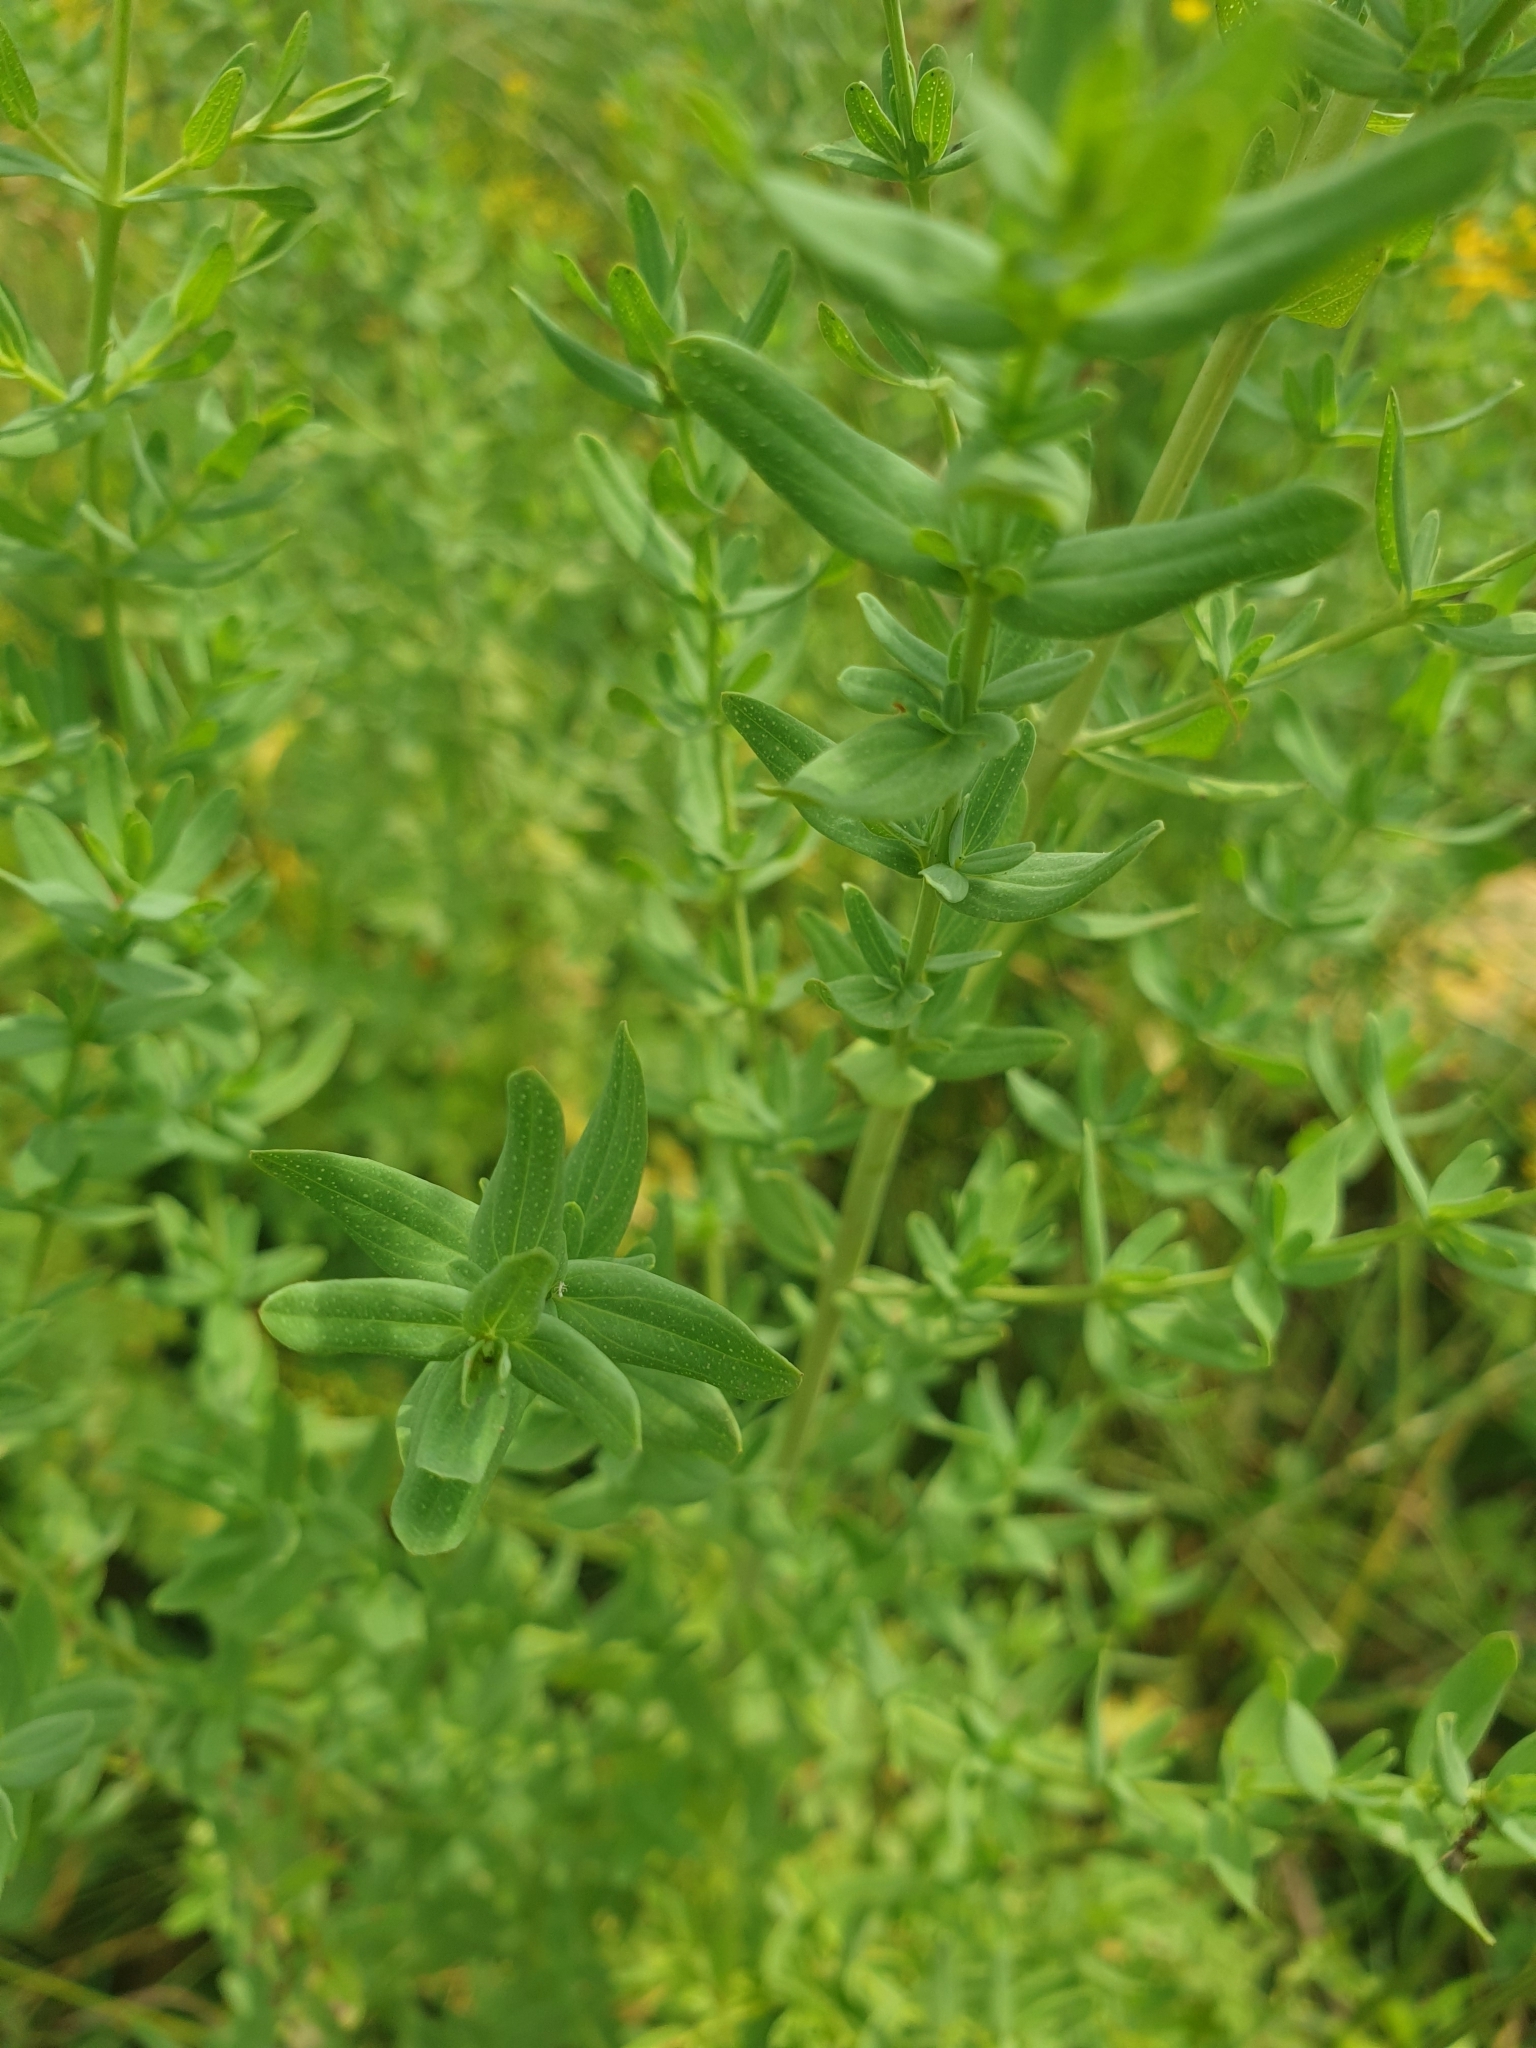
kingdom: Plantae
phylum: Tracheophyta
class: Magnoliopsida
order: Malpighiales
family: Hypericaceae
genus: Hypericum
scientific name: Hypericum perforatum
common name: Common st. johnswort
